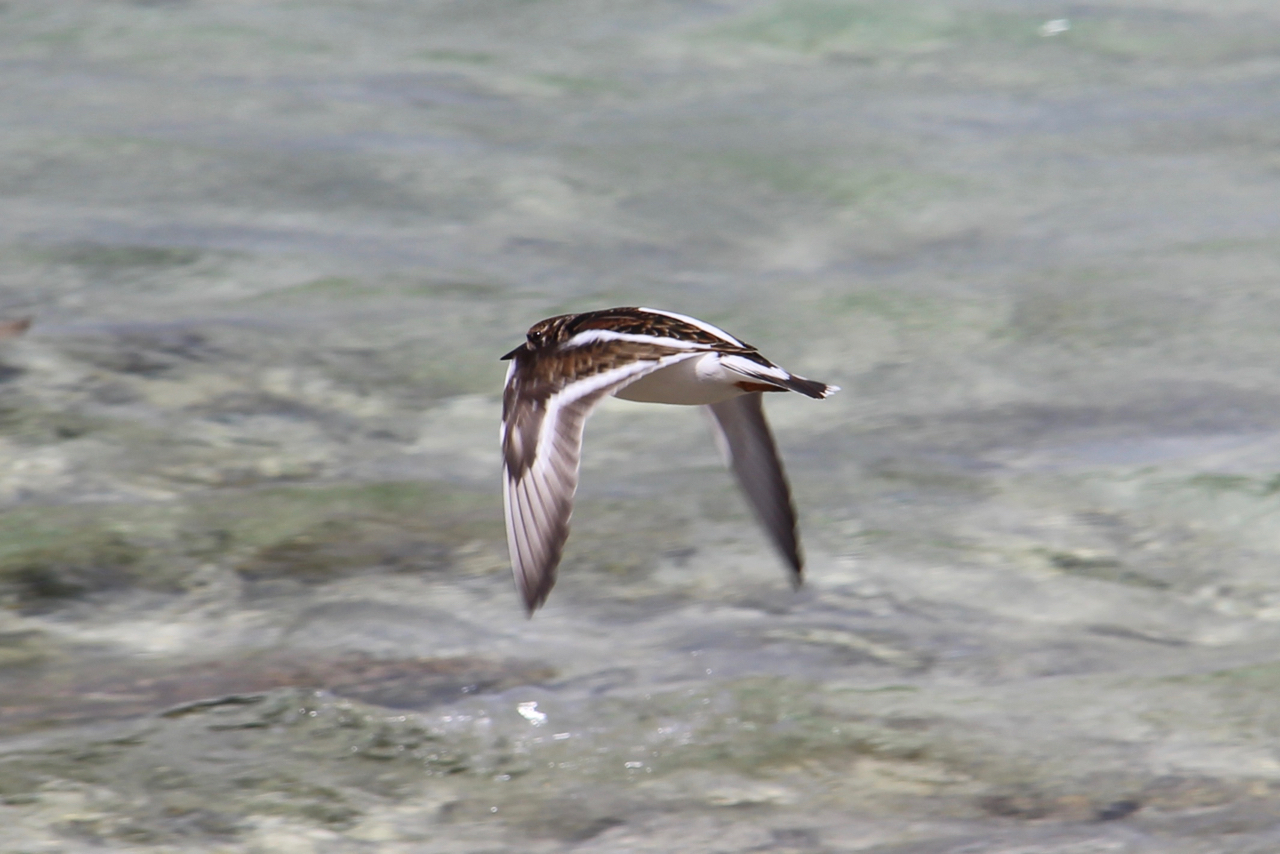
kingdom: Animalia
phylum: Chordata
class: Aves
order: Charadriiformes
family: Scolopacidae
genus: Arenaria
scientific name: Arenaria interpres
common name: Ruddy turnstone
